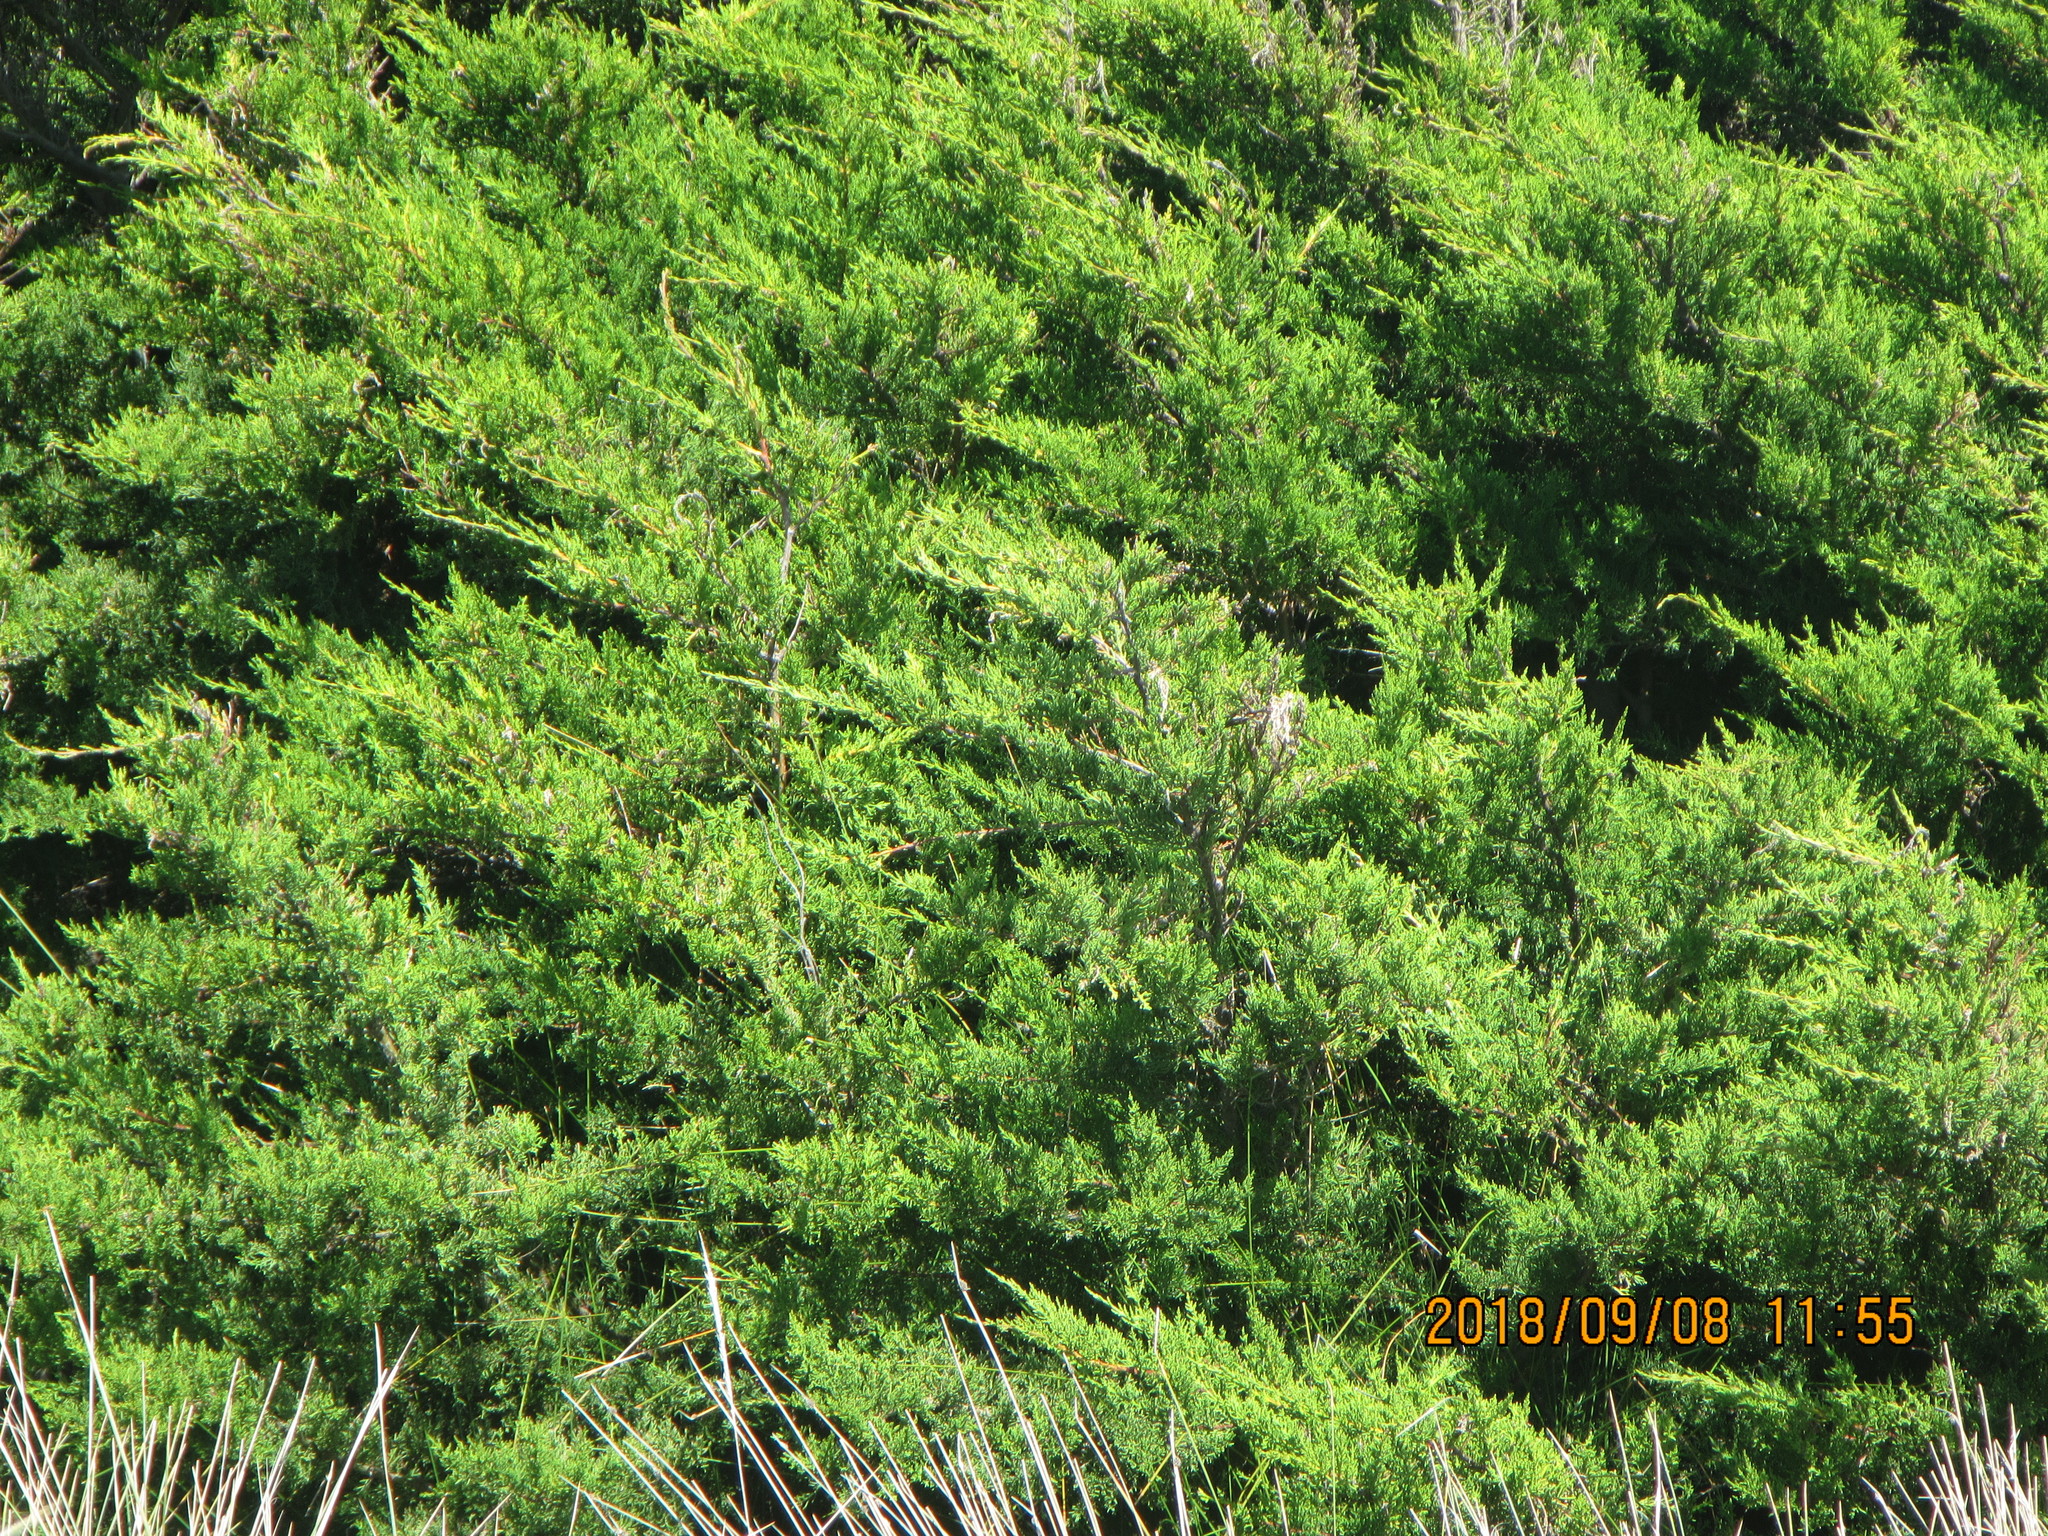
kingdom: Plantae
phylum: Tracheophyta
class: Pinopsida
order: Pinales
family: Cupressaceae
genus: Cupressus
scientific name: Cupressus macrocarpa
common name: Monterey cypress
